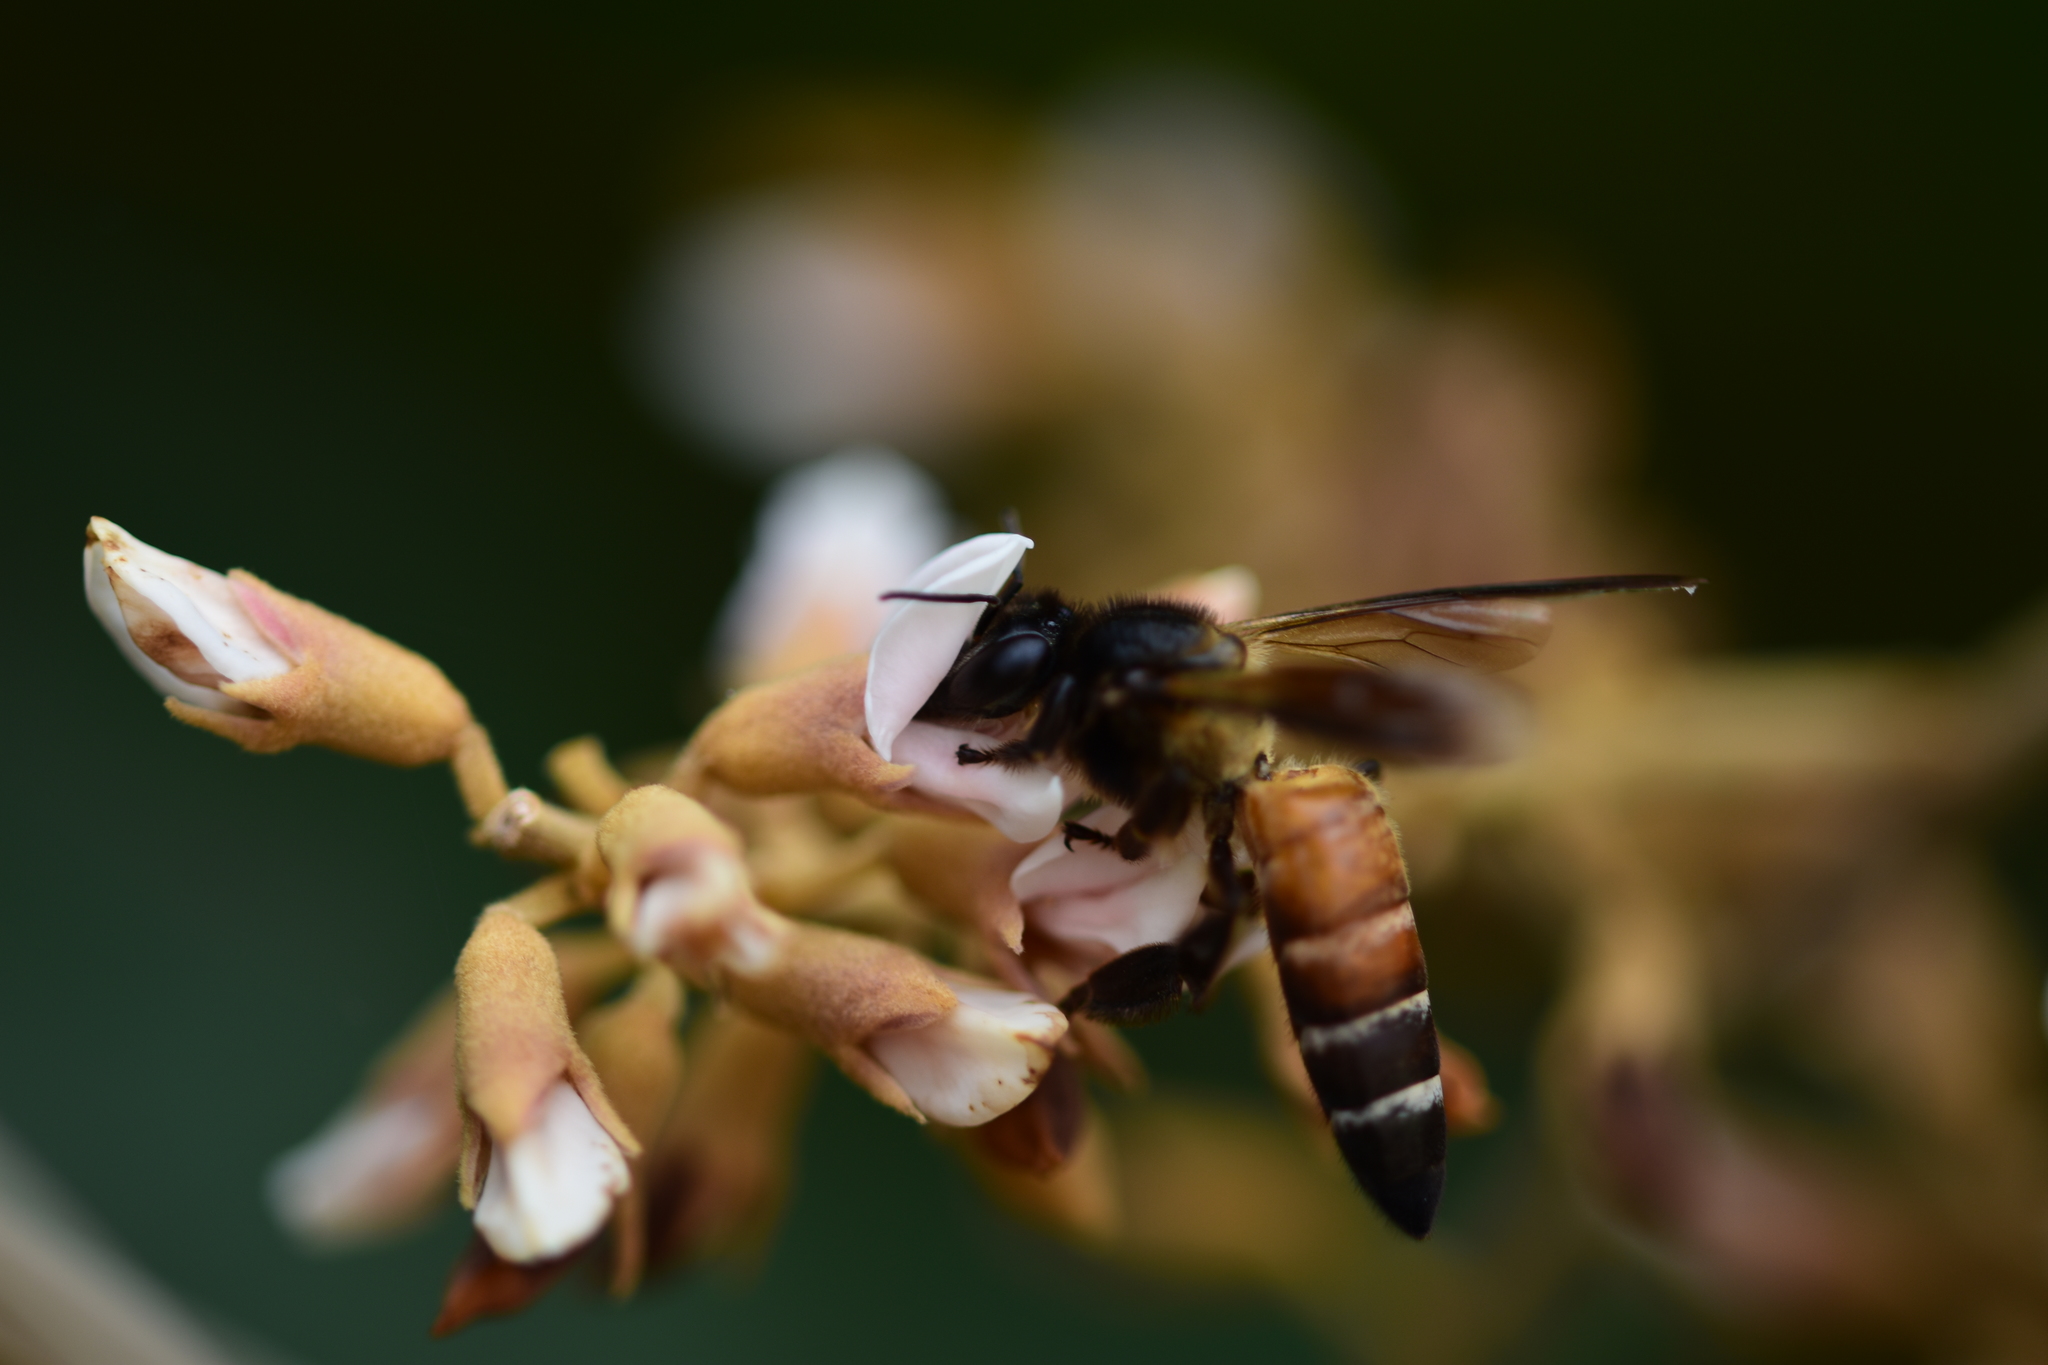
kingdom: Animalia
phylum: Arthropoda
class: Insecta
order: Hymenoptera
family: Apidae
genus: Apis
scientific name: Apis dorsata
